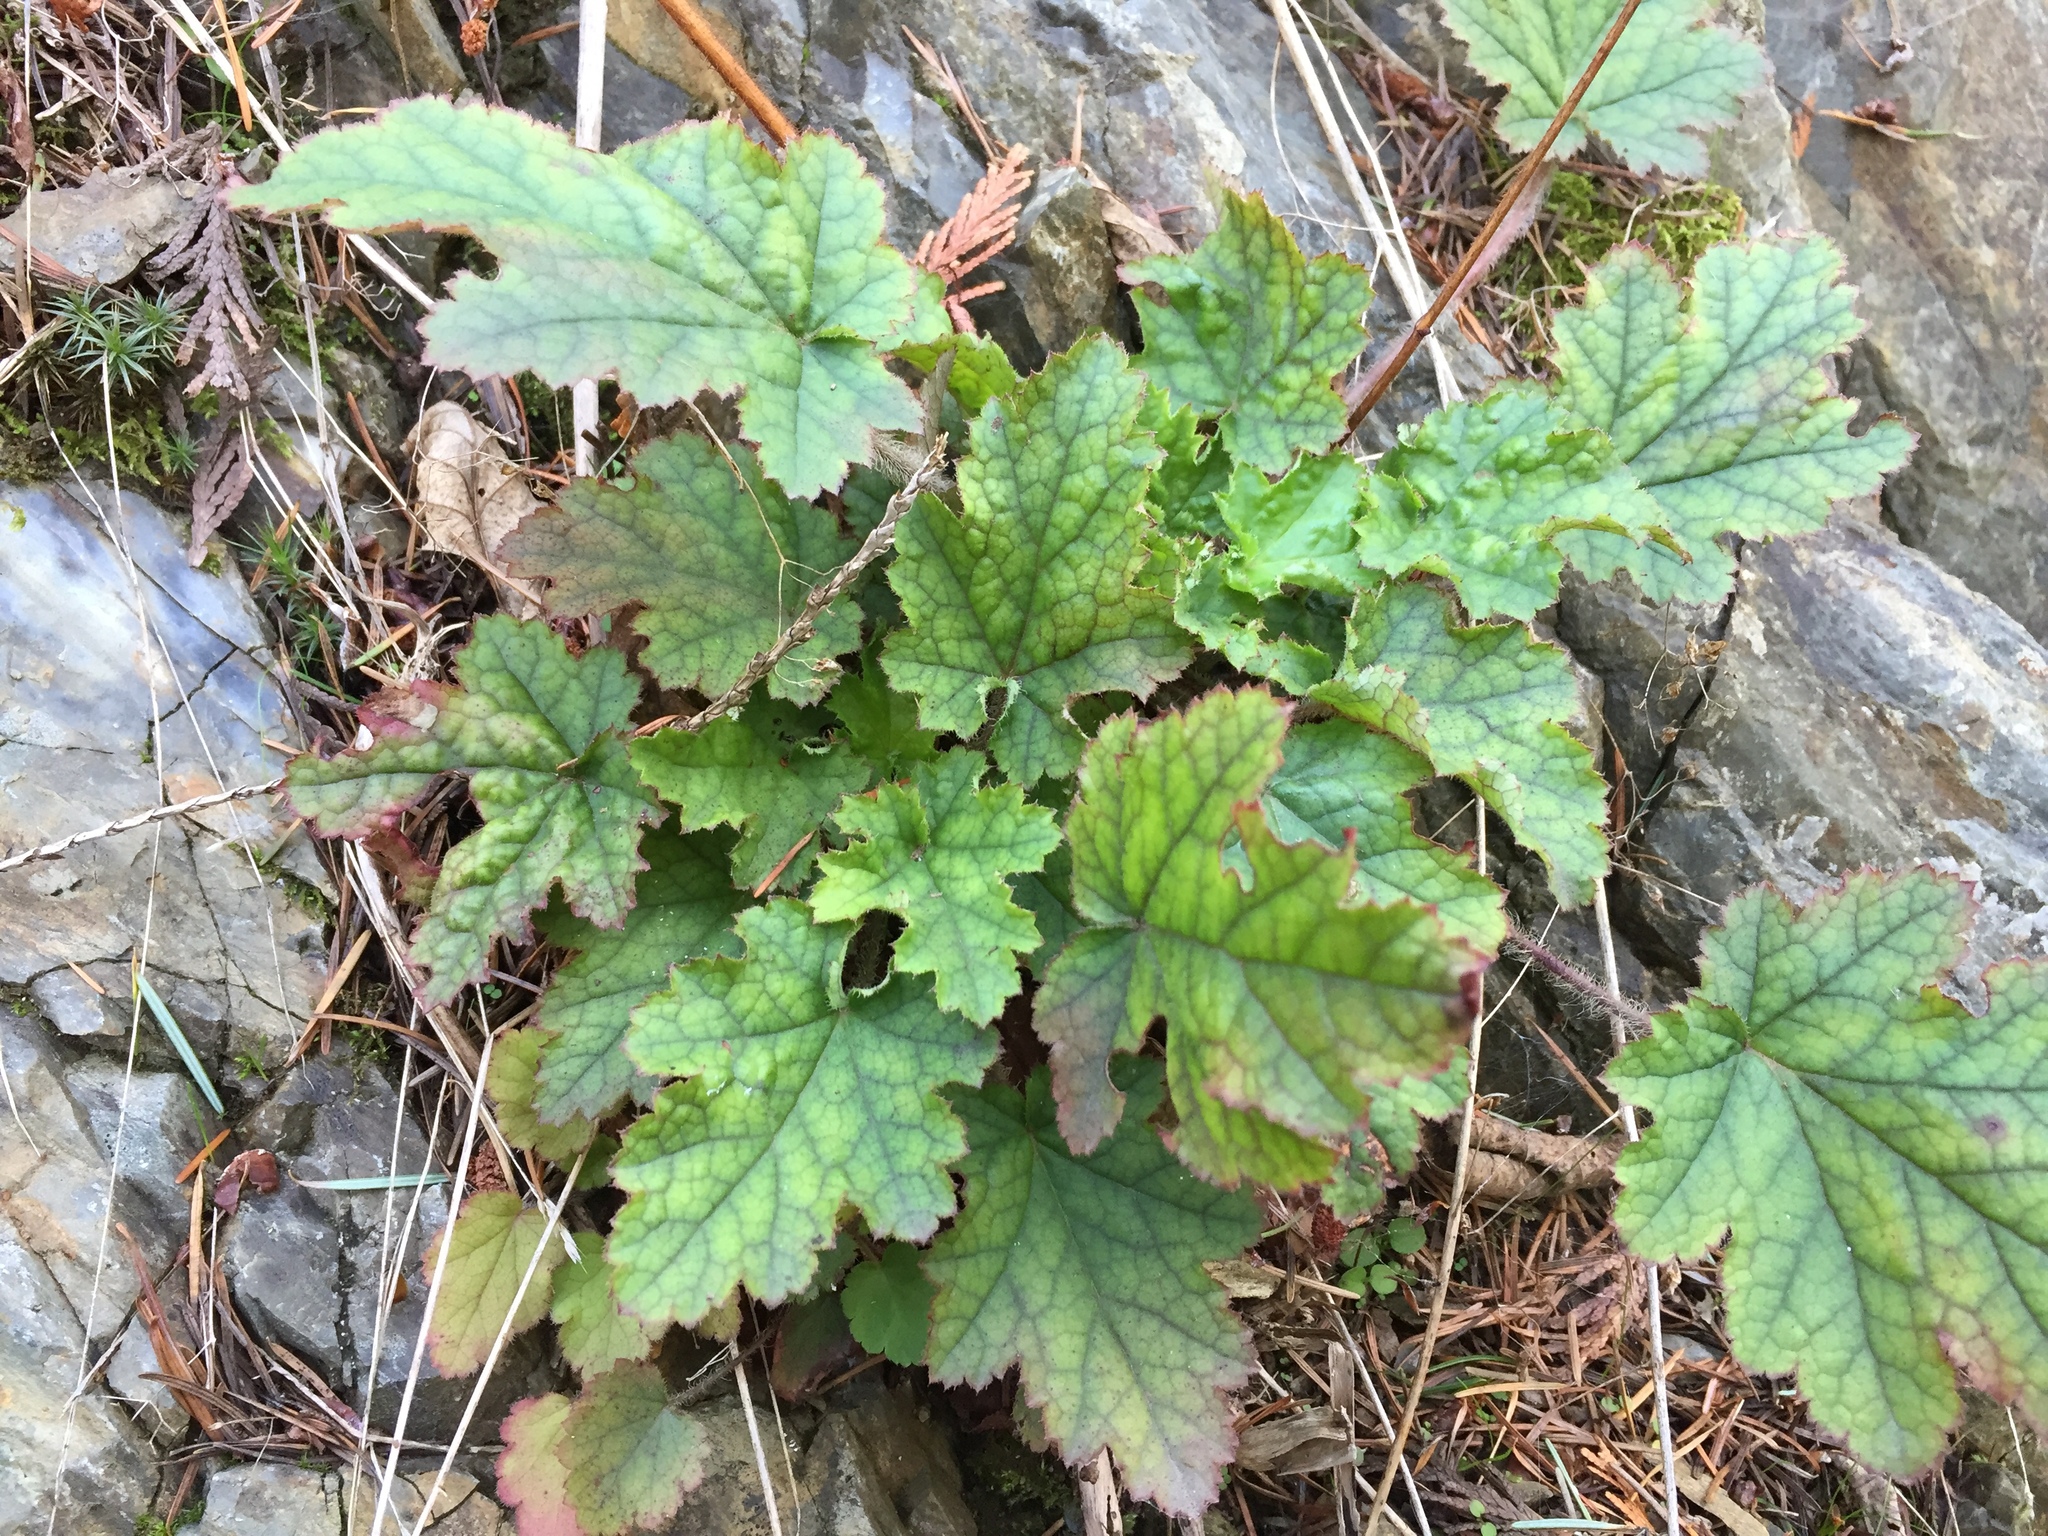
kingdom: Plantae
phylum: Tracheophyta
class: Magnoliopsida
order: Saxifragales
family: Saxifragaceae
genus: Heuchera
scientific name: Heuchera micrantha
